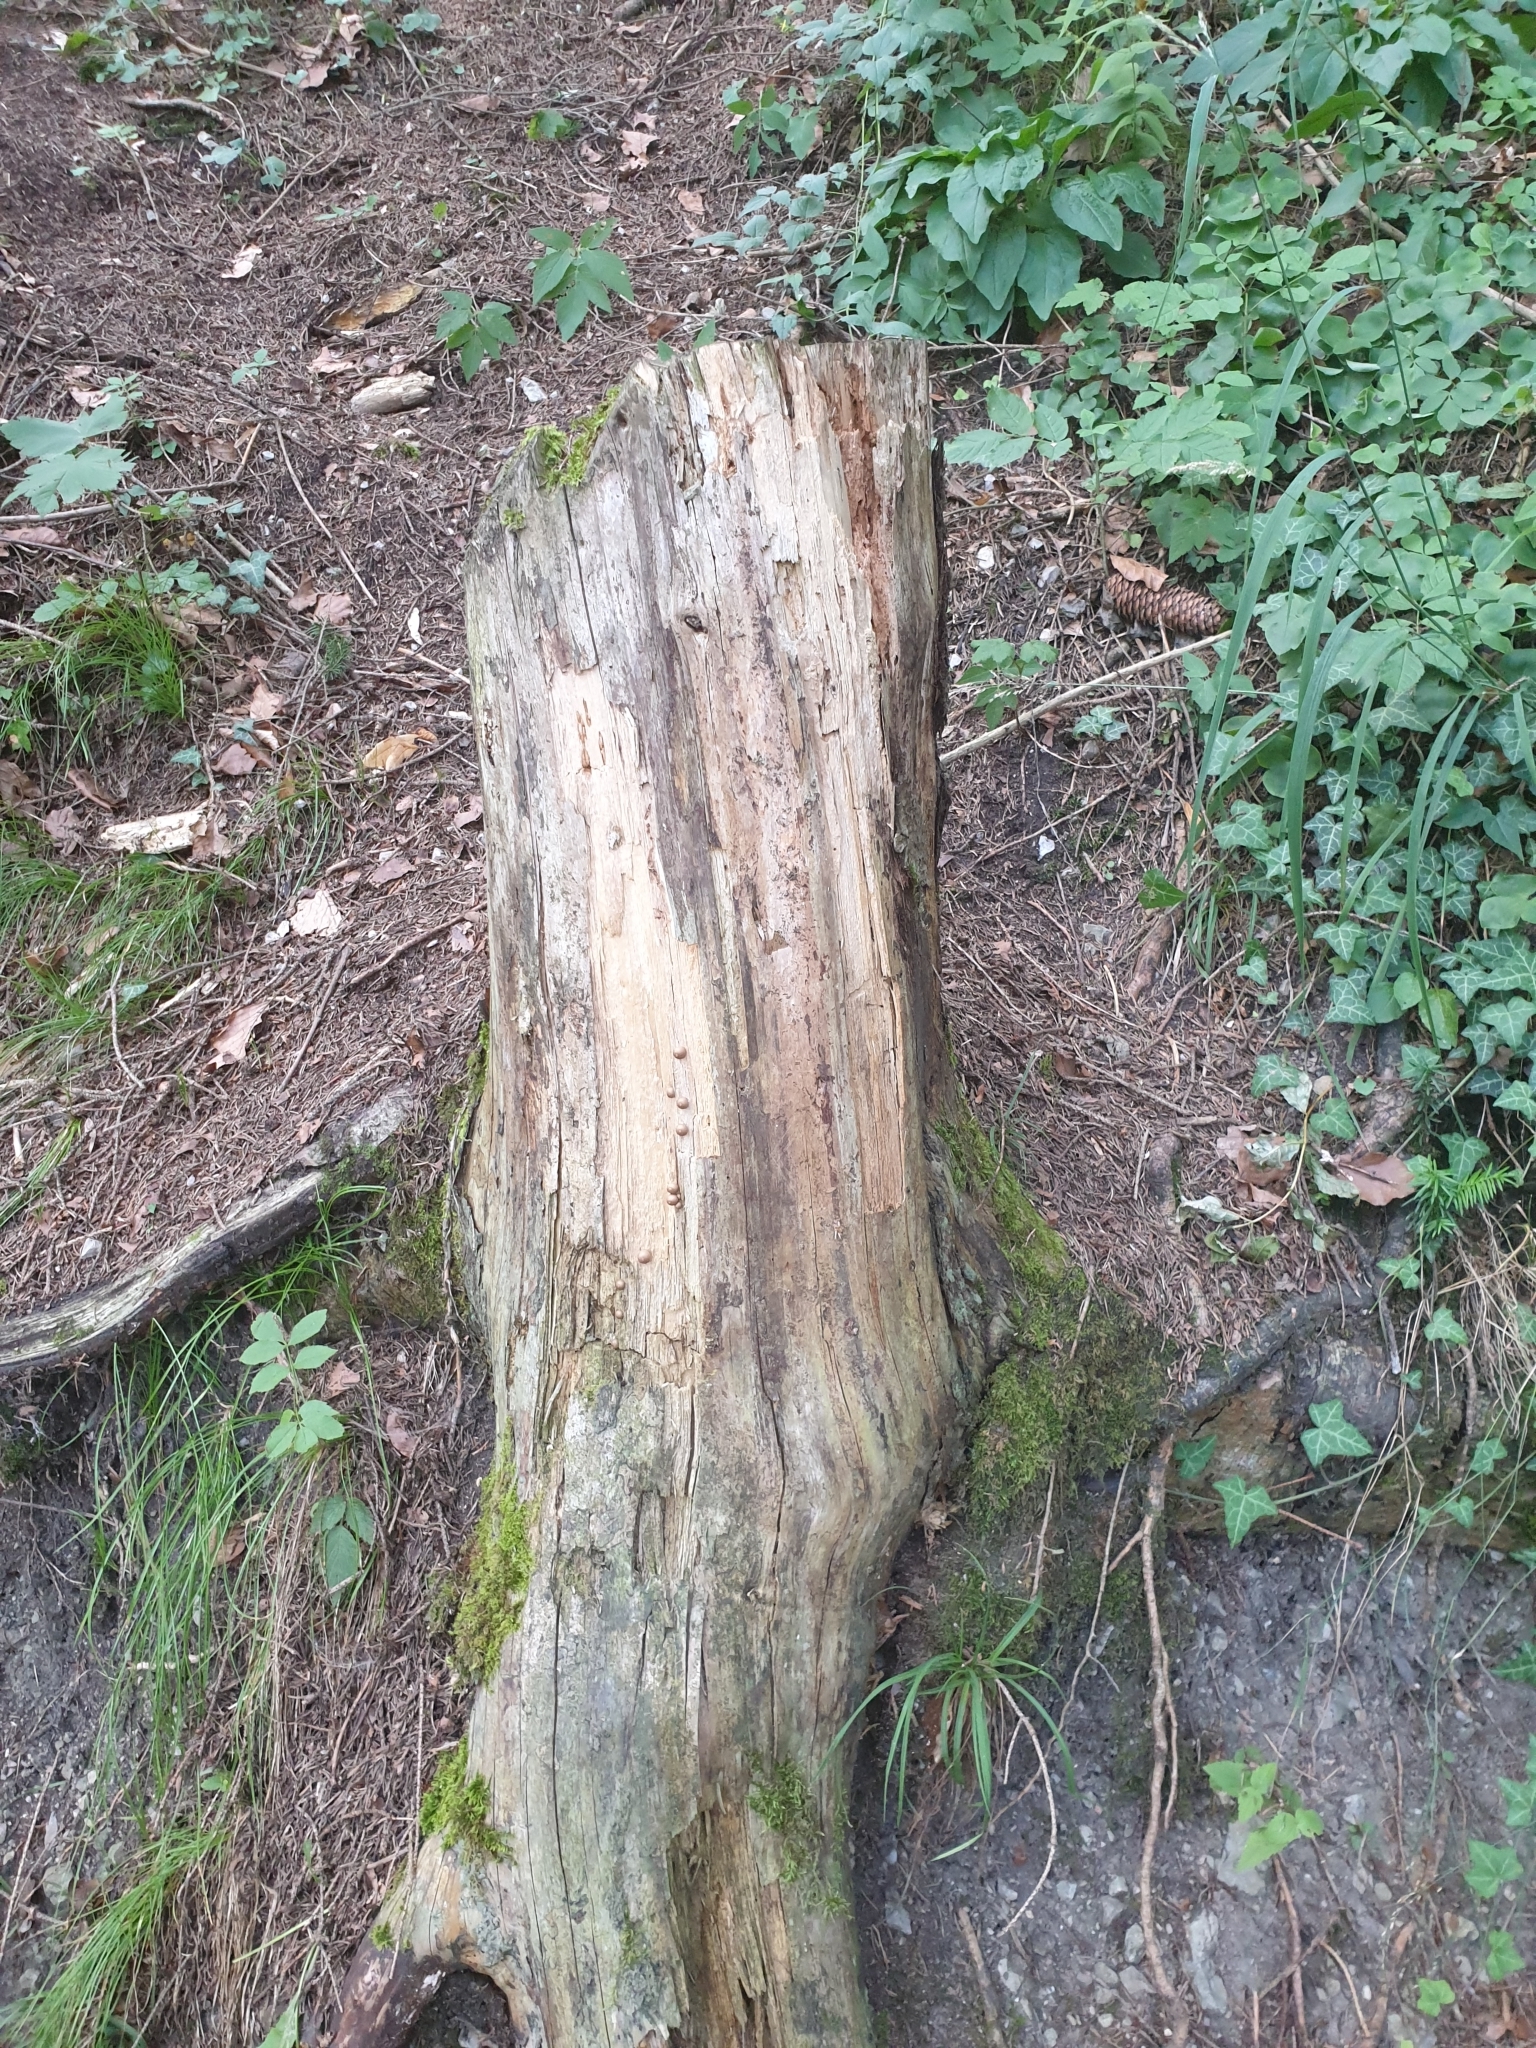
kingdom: Protozoa
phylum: Mycetozoa
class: Myxomycetes
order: Cribrariales
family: Tubiferaceae
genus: Lycogala
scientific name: Lycogala epidendrum
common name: Wolf's milk
